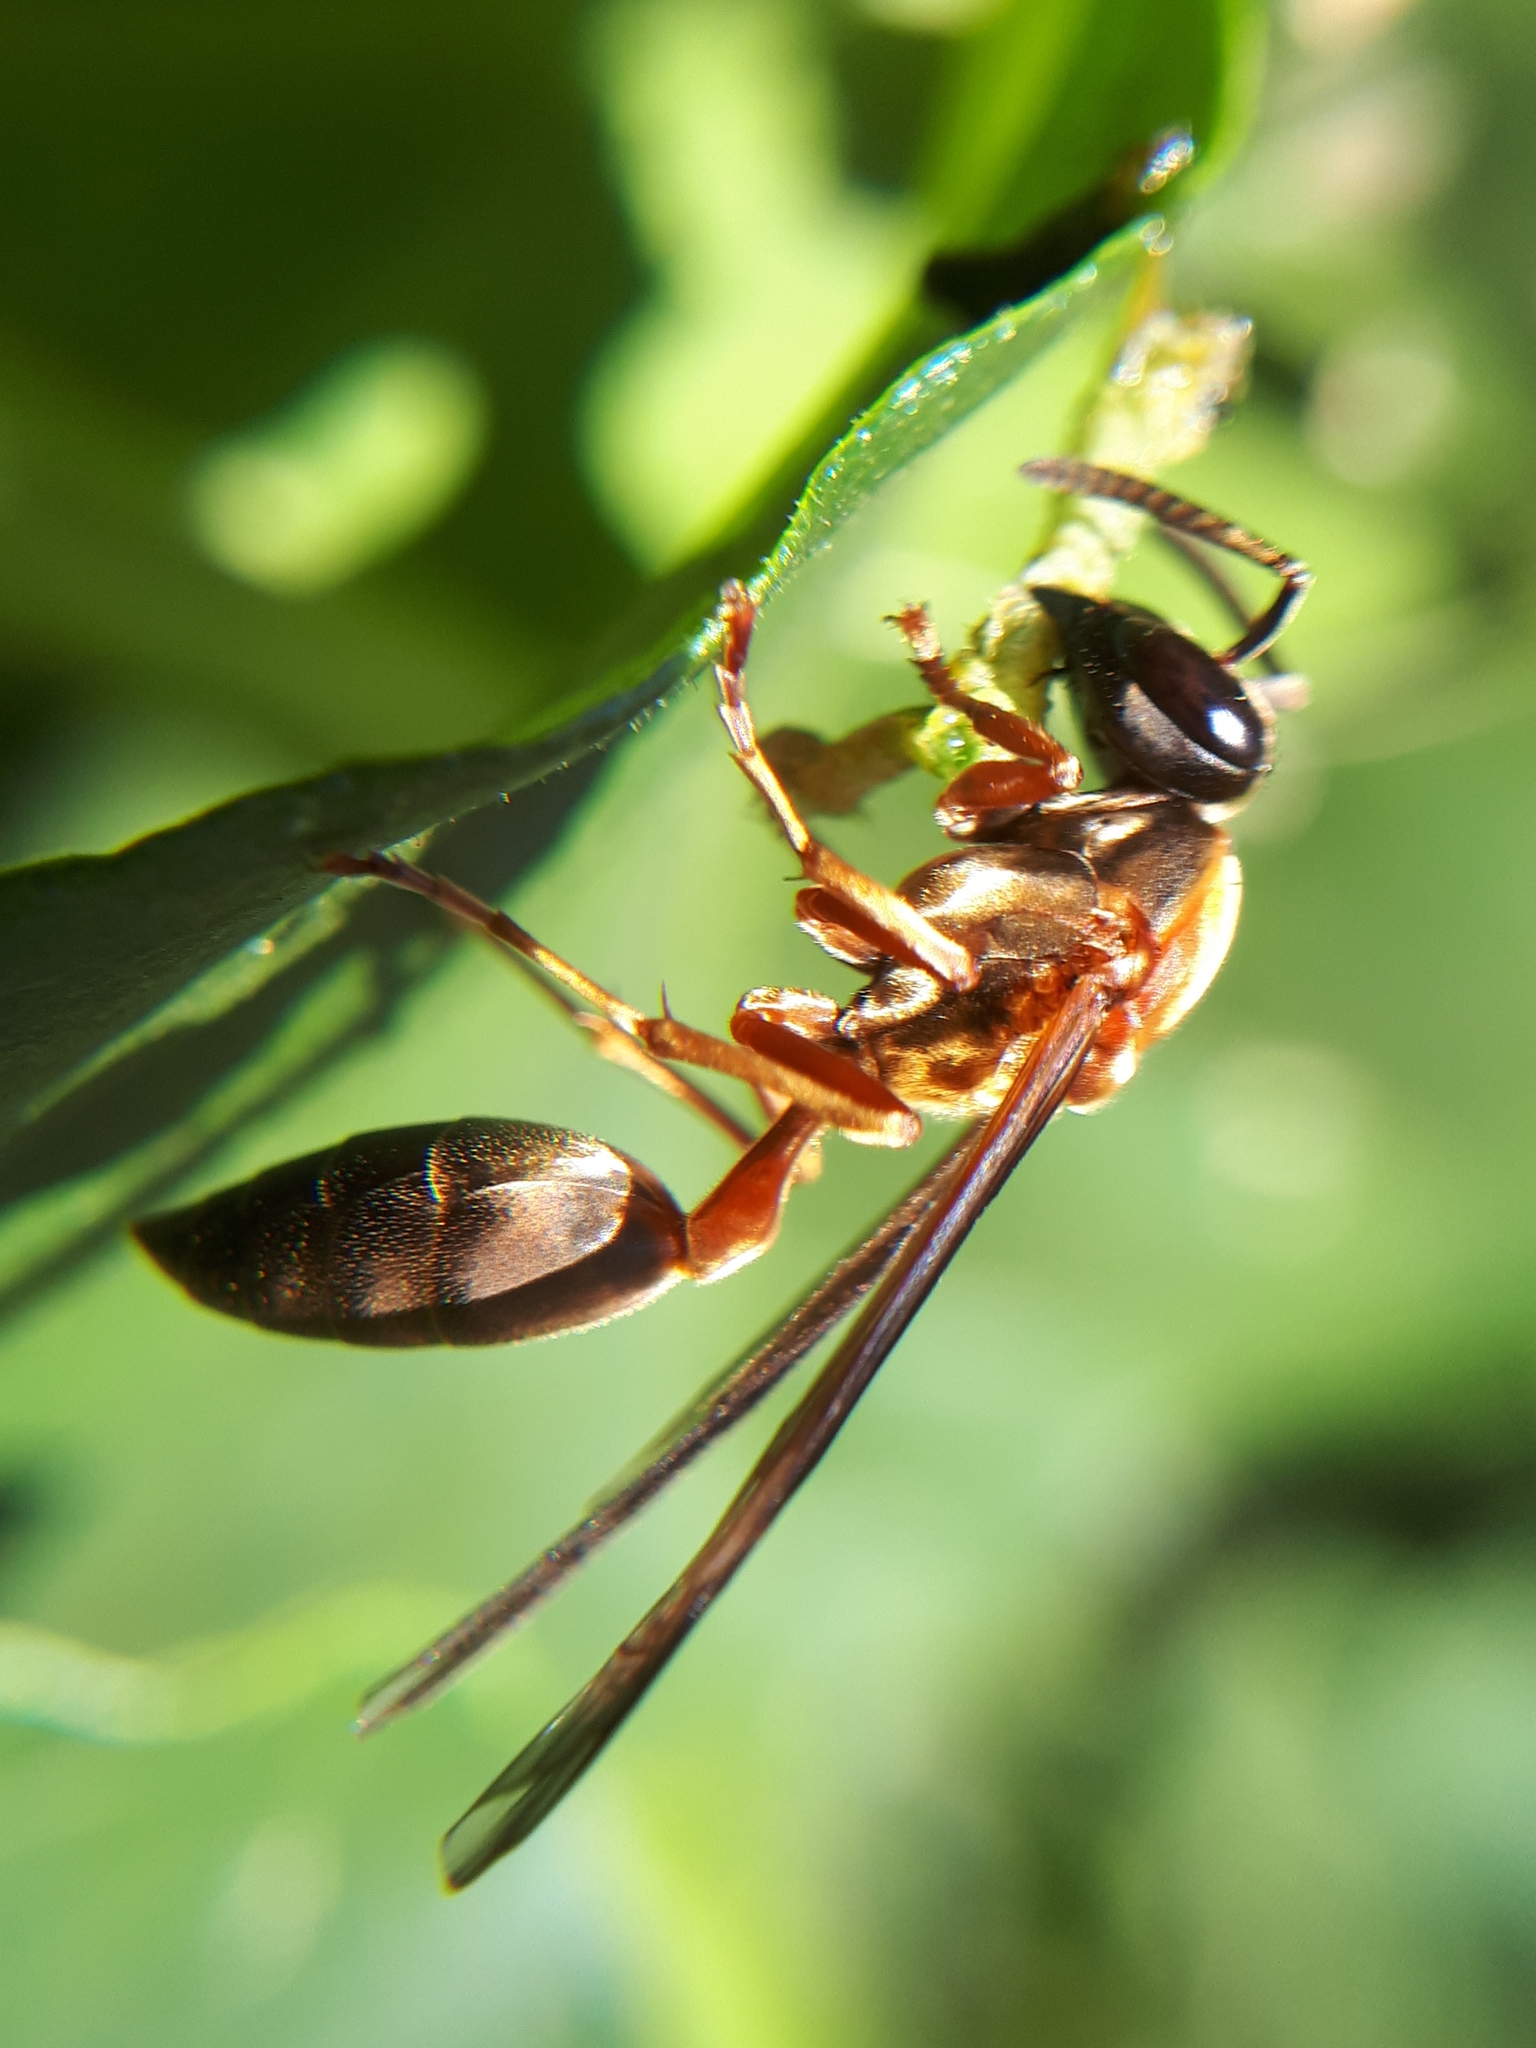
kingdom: Animalia
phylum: Arthropoda
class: Insecta
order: Hymenoptera
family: Eumenidae
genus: Polybia
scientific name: Polybia sericea
